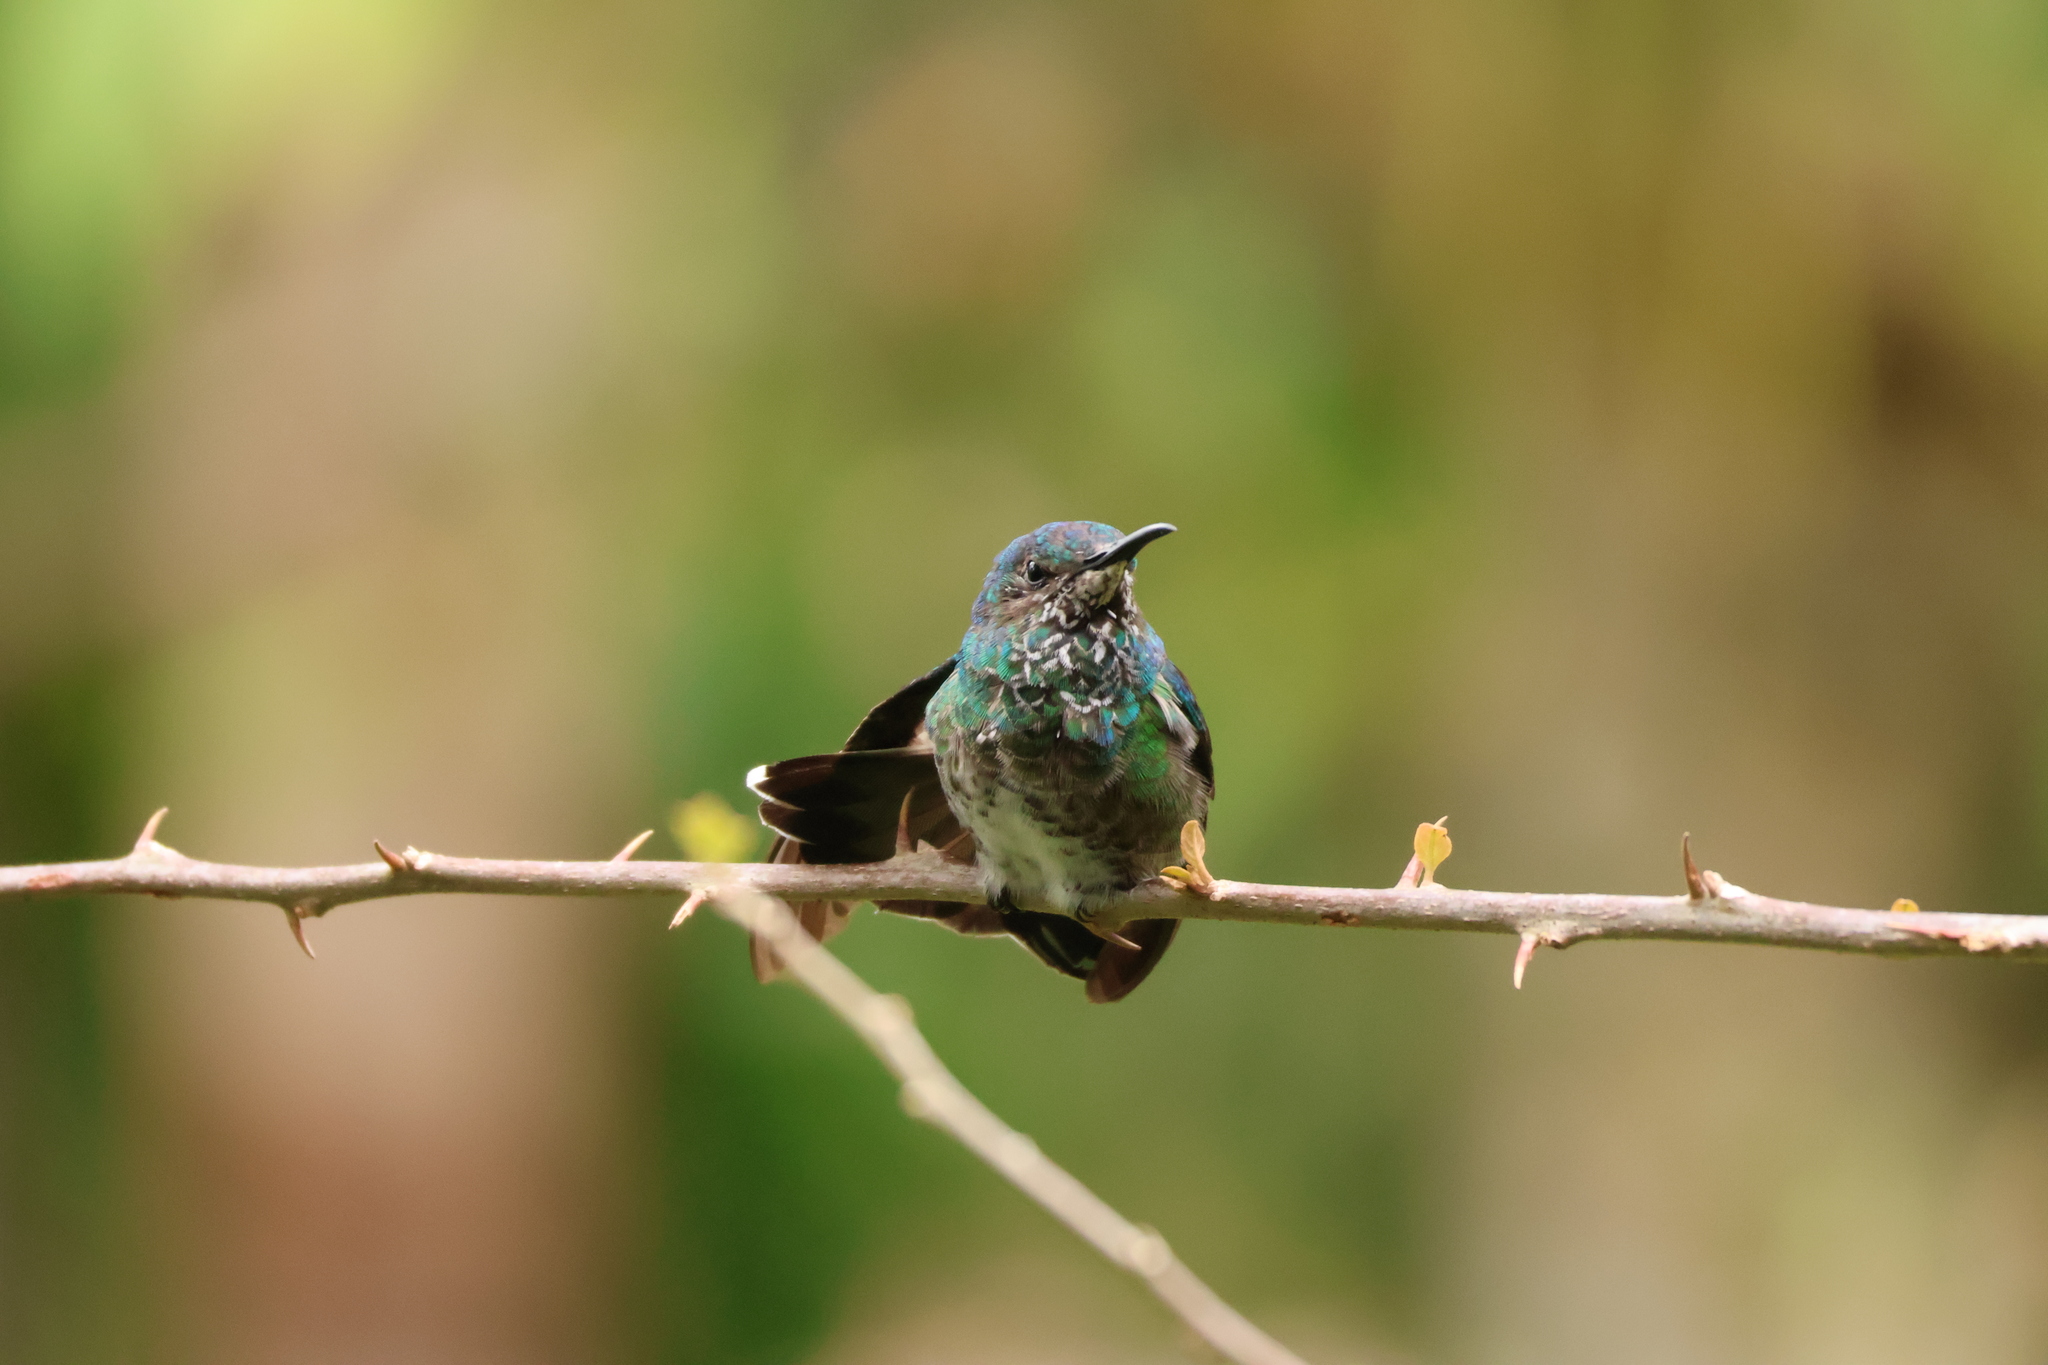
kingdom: Animalia
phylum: Chordata
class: Aves
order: Apodiformes
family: Trochilidae
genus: Florisuga
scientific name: Florisuga mellivora
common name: White-necked jacobin
